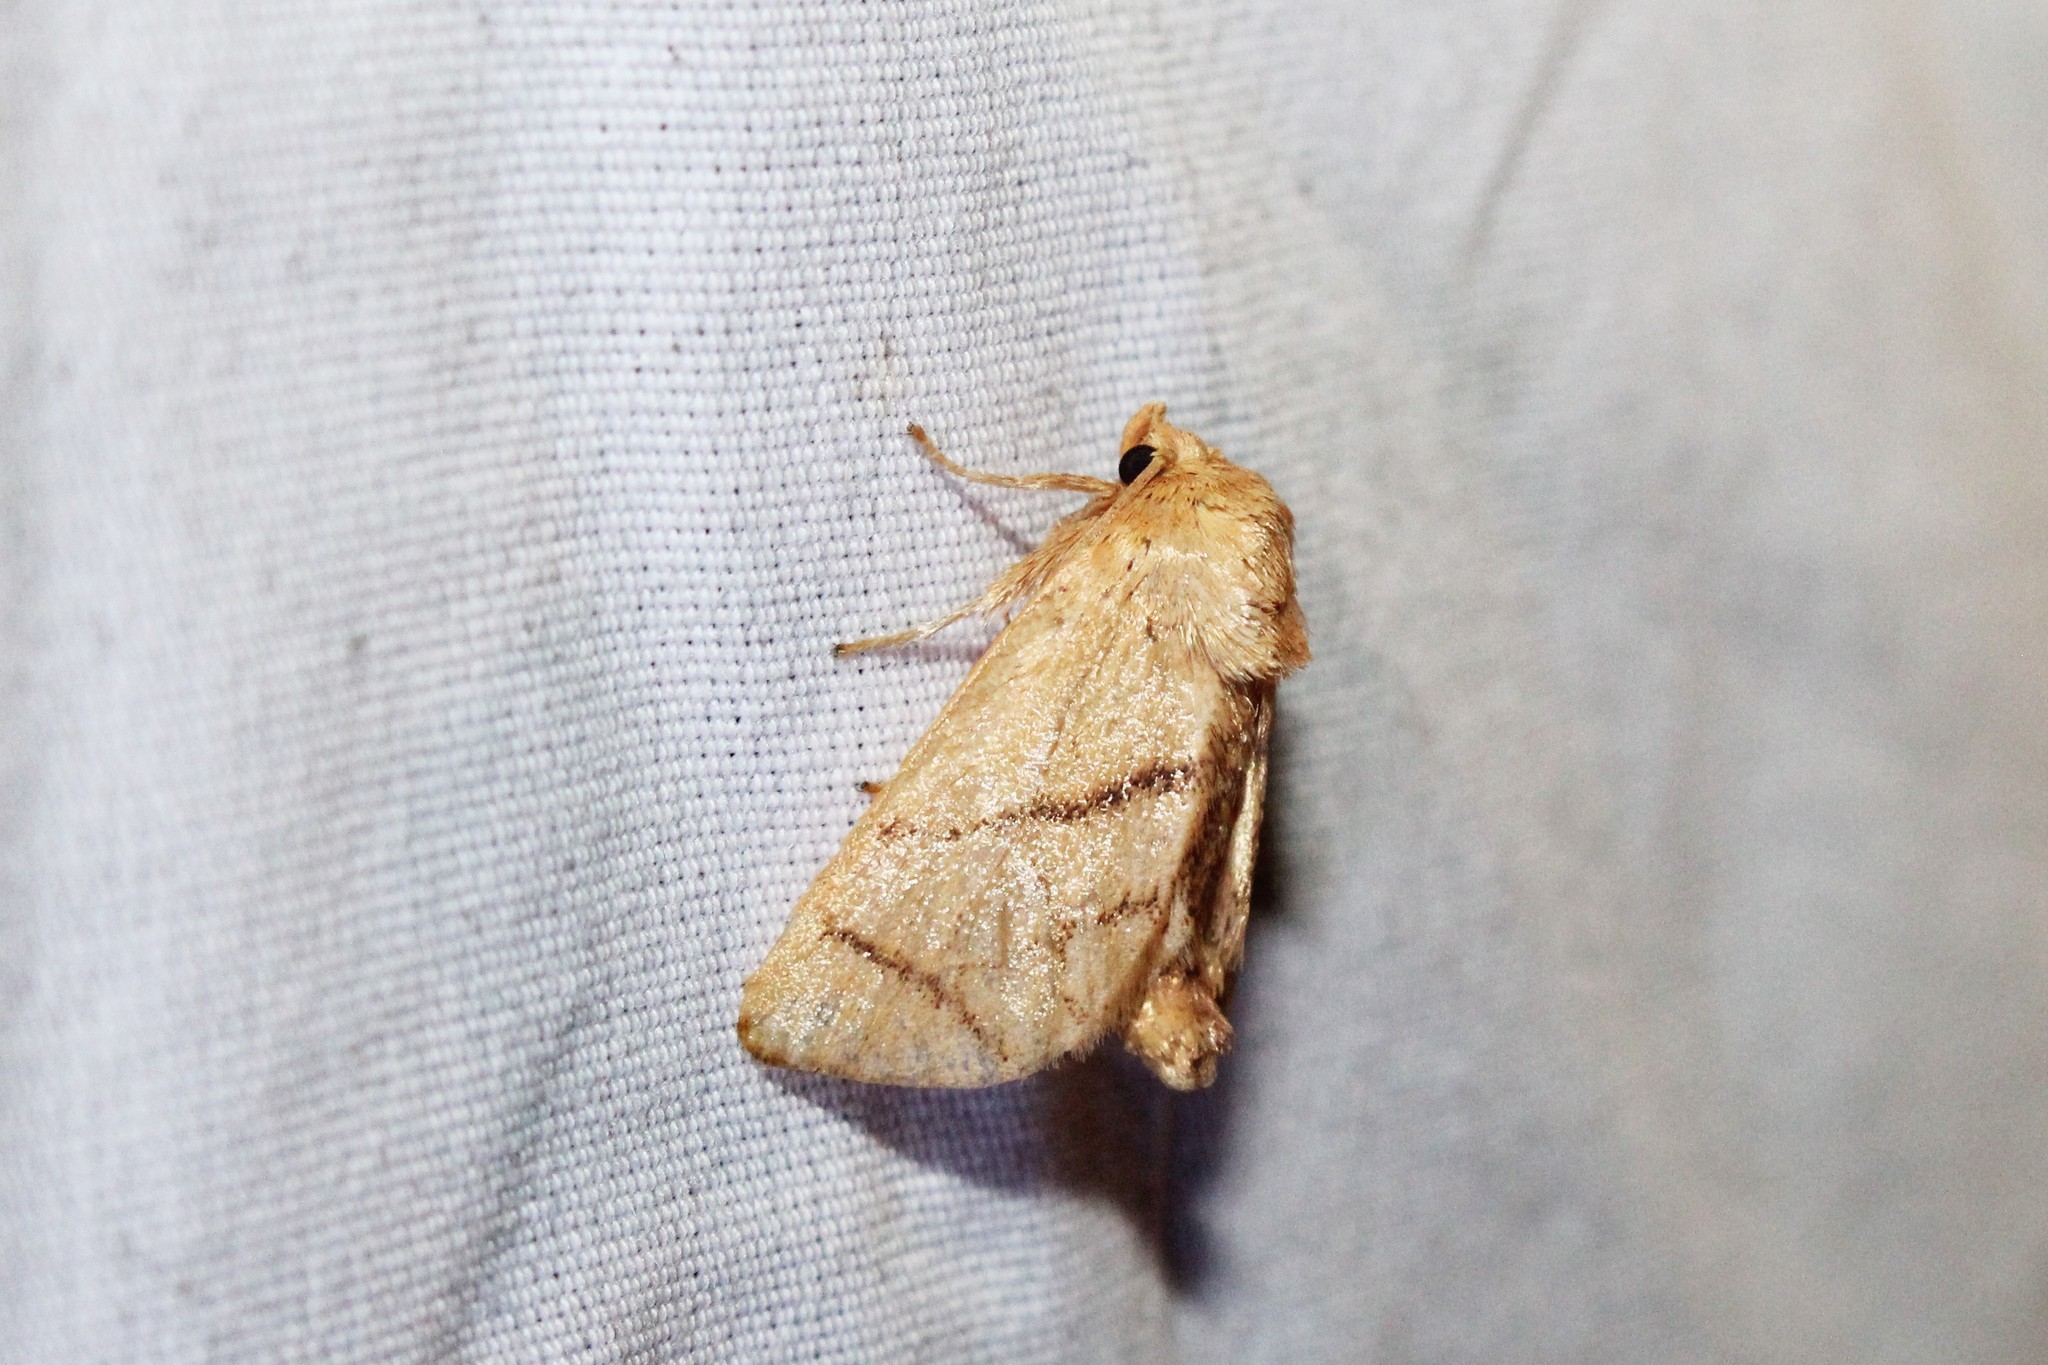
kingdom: Animalia
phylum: Arthropoda
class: Insecta
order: Lepidoptera
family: Limacodidae
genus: Apoda
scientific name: Apoda y-inversa
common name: Yellow-collared slug moth
